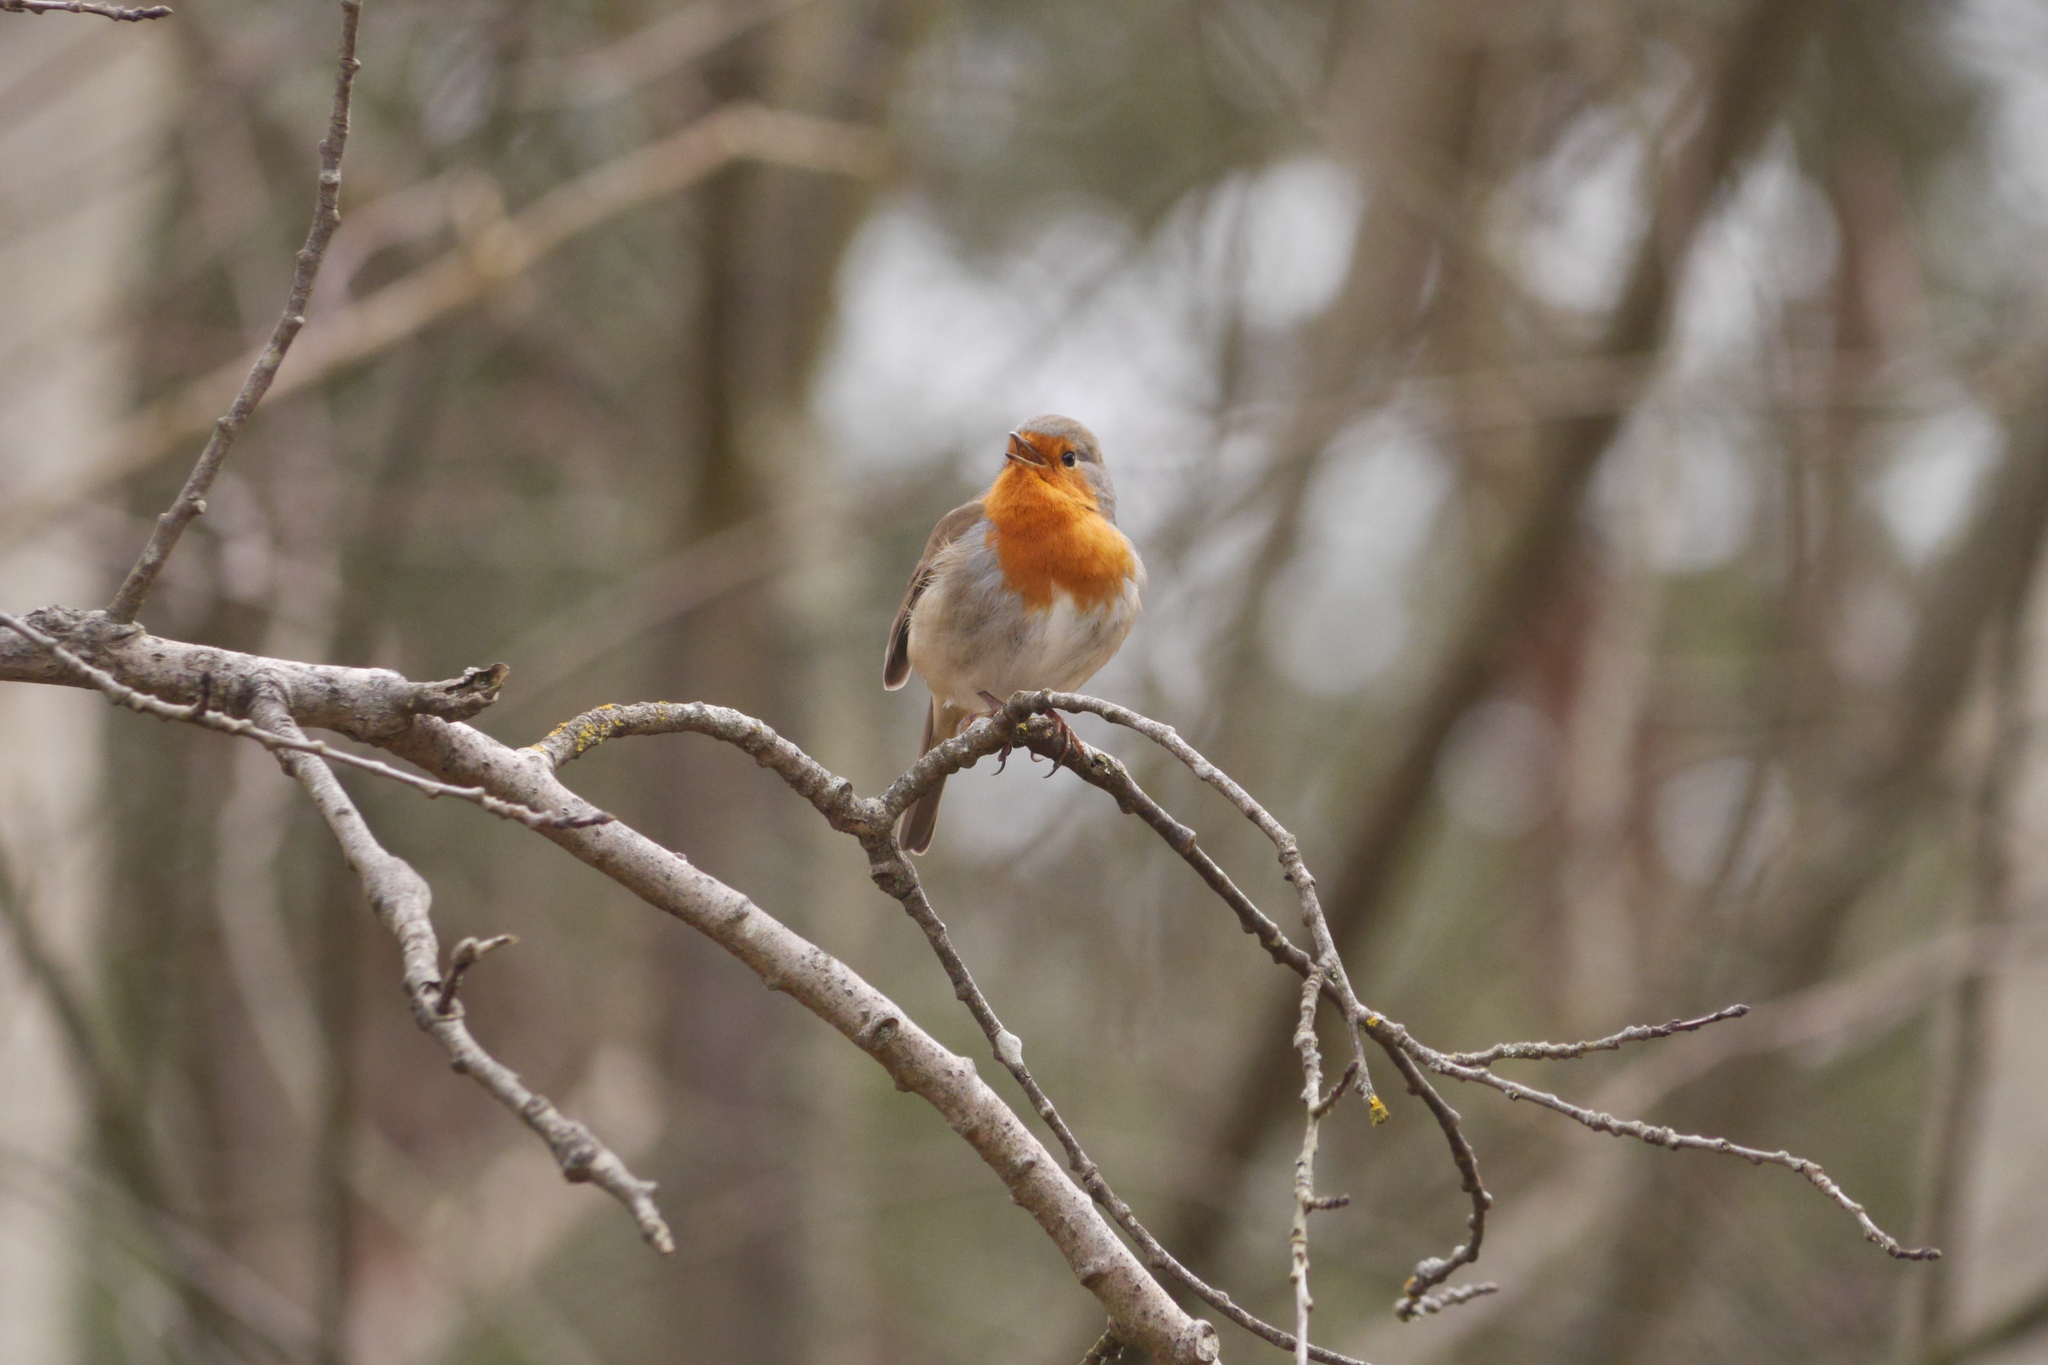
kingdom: Animalia
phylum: Chordata
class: Aves
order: Passeriformes
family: Muscicapidae
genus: Erithacus
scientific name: Erithacus rubecula
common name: European robin
